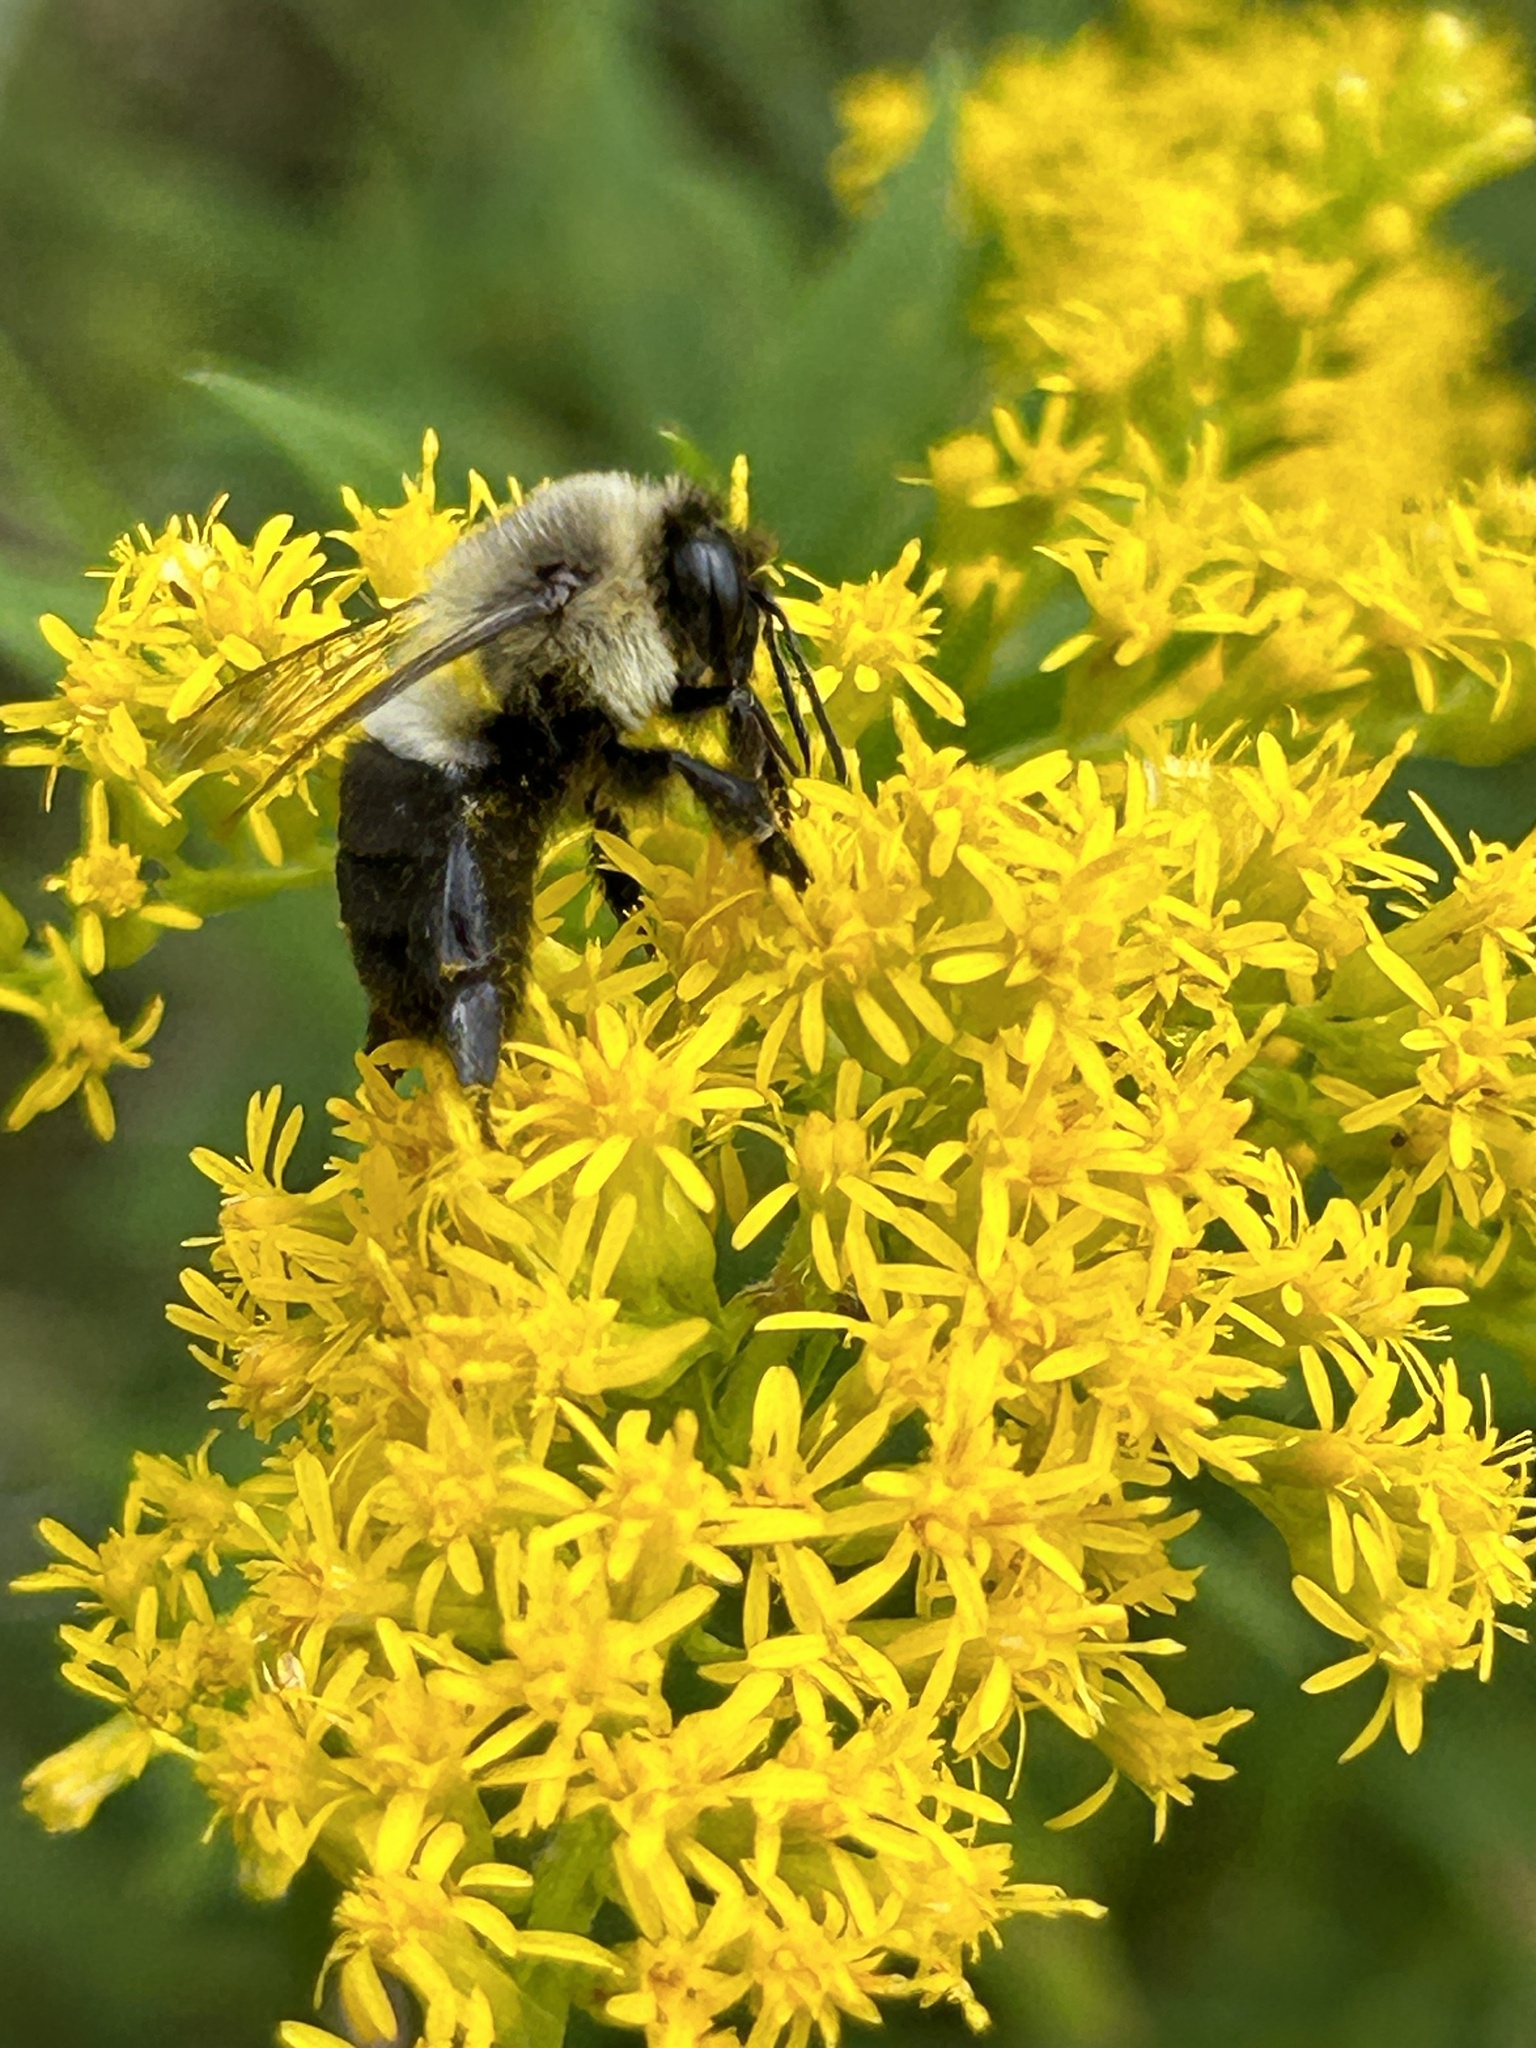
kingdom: Animalia
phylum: Arthropoda
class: Insecta
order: Hymenoptera
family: Apidae
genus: Bombus
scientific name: Bombus impatiens
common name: Common eastern bumble bee
